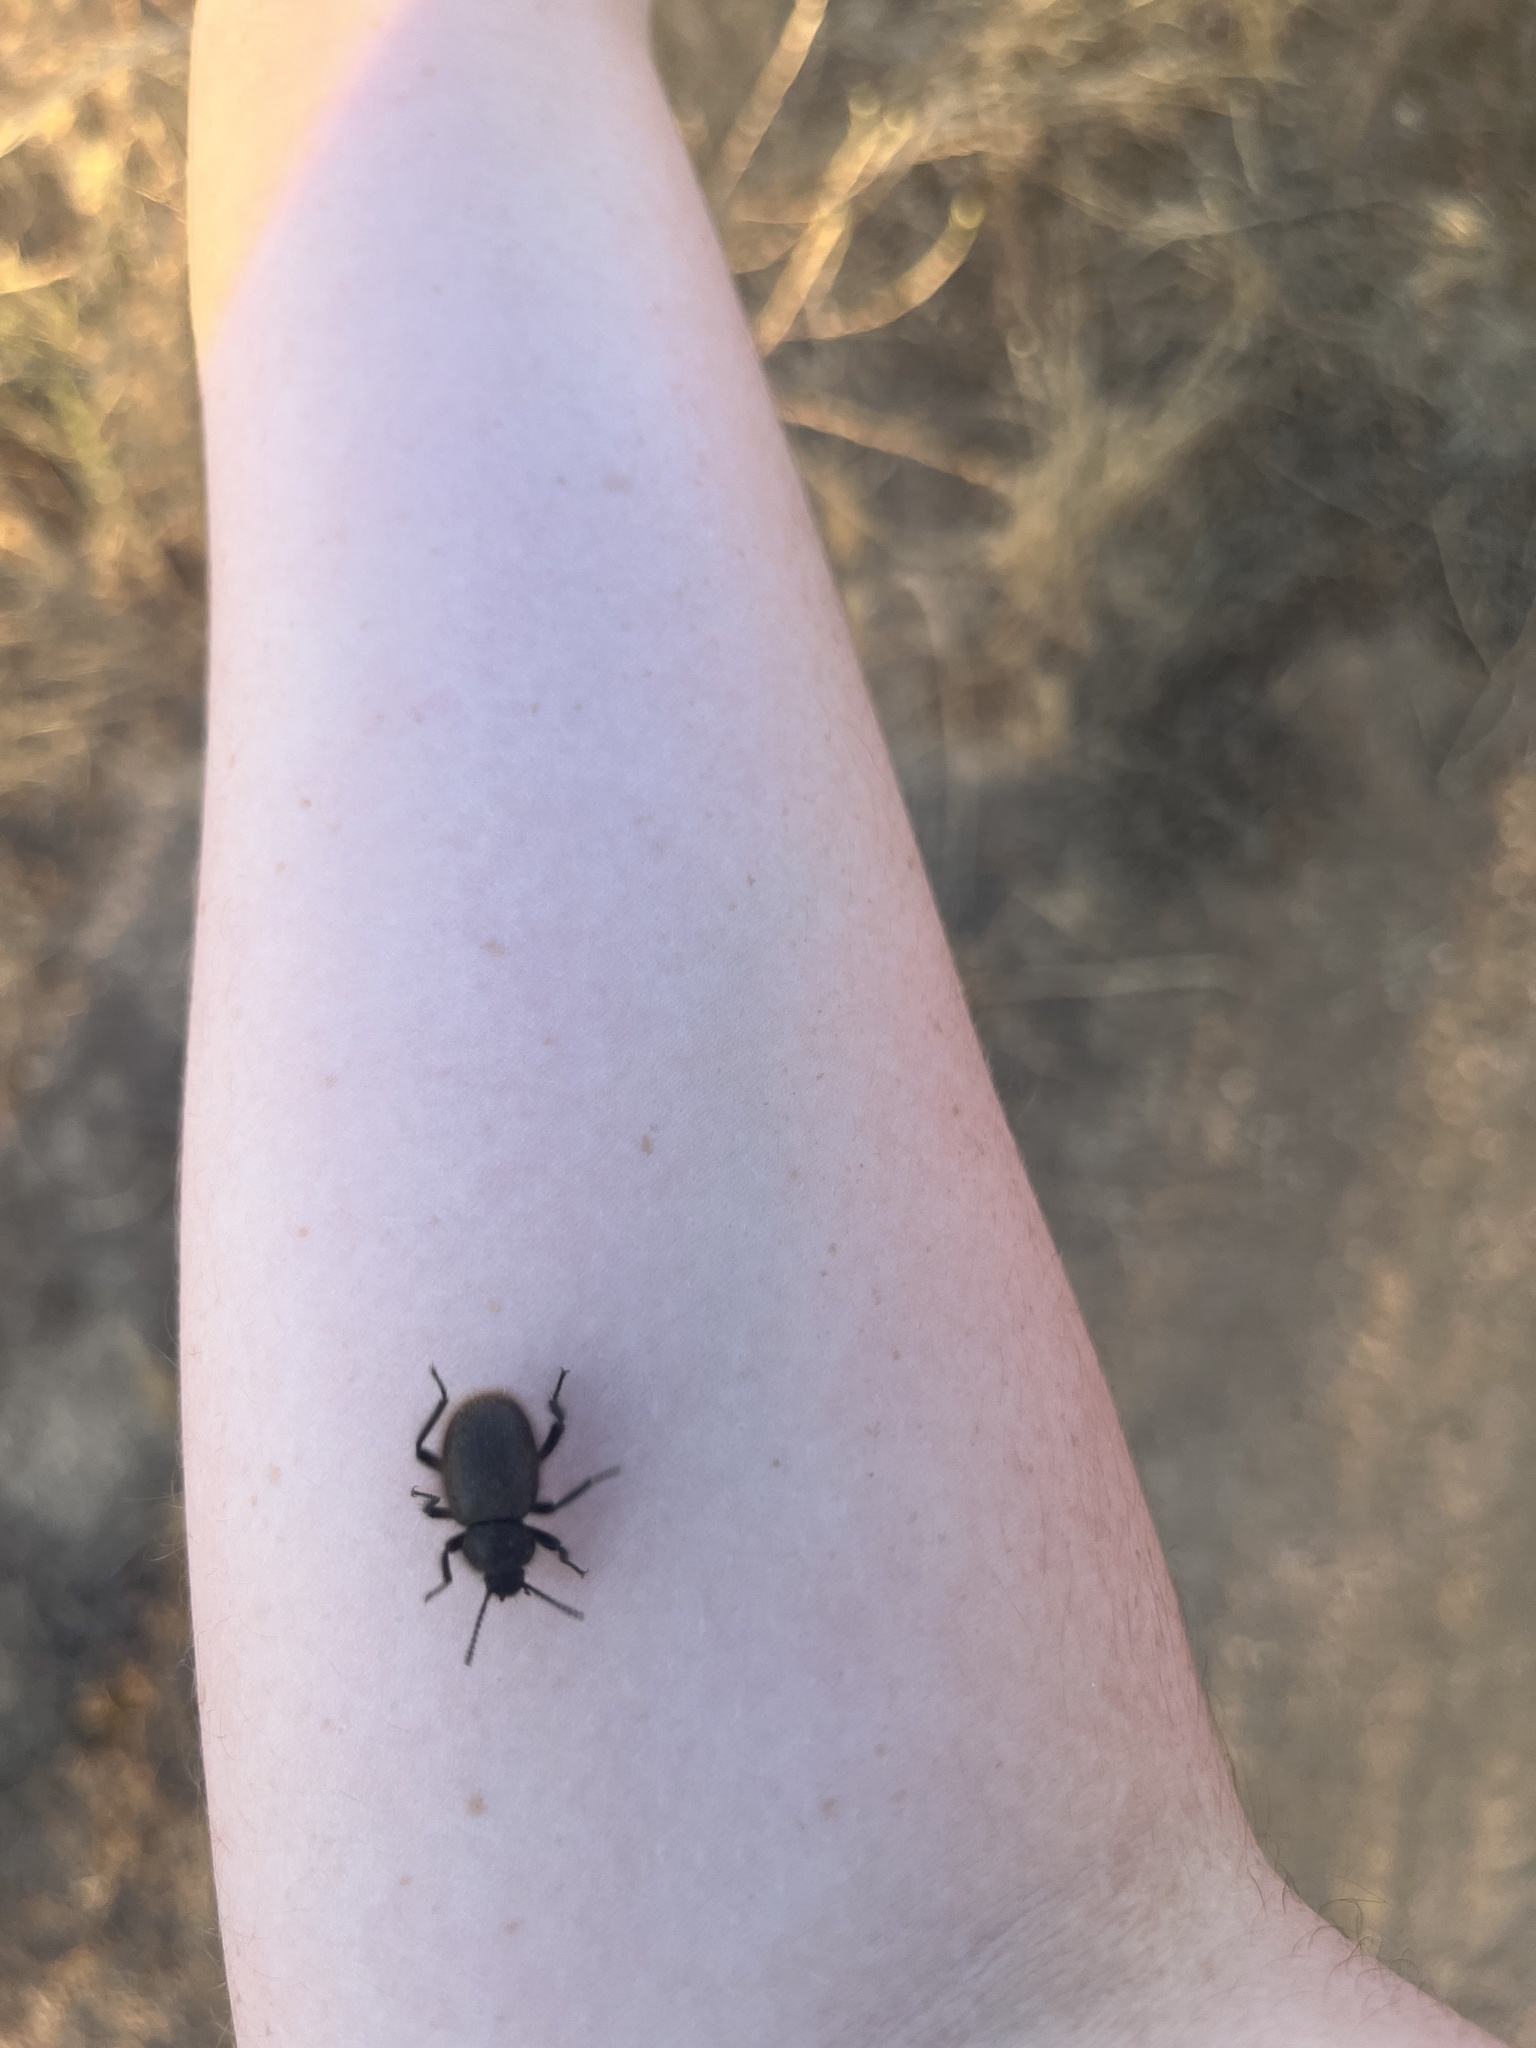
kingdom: Animalia
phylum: Arthropoda
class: Insecta
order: Coleoptera
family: Tenebrionidae
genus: Eleodes
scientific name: Eleodes osculans
